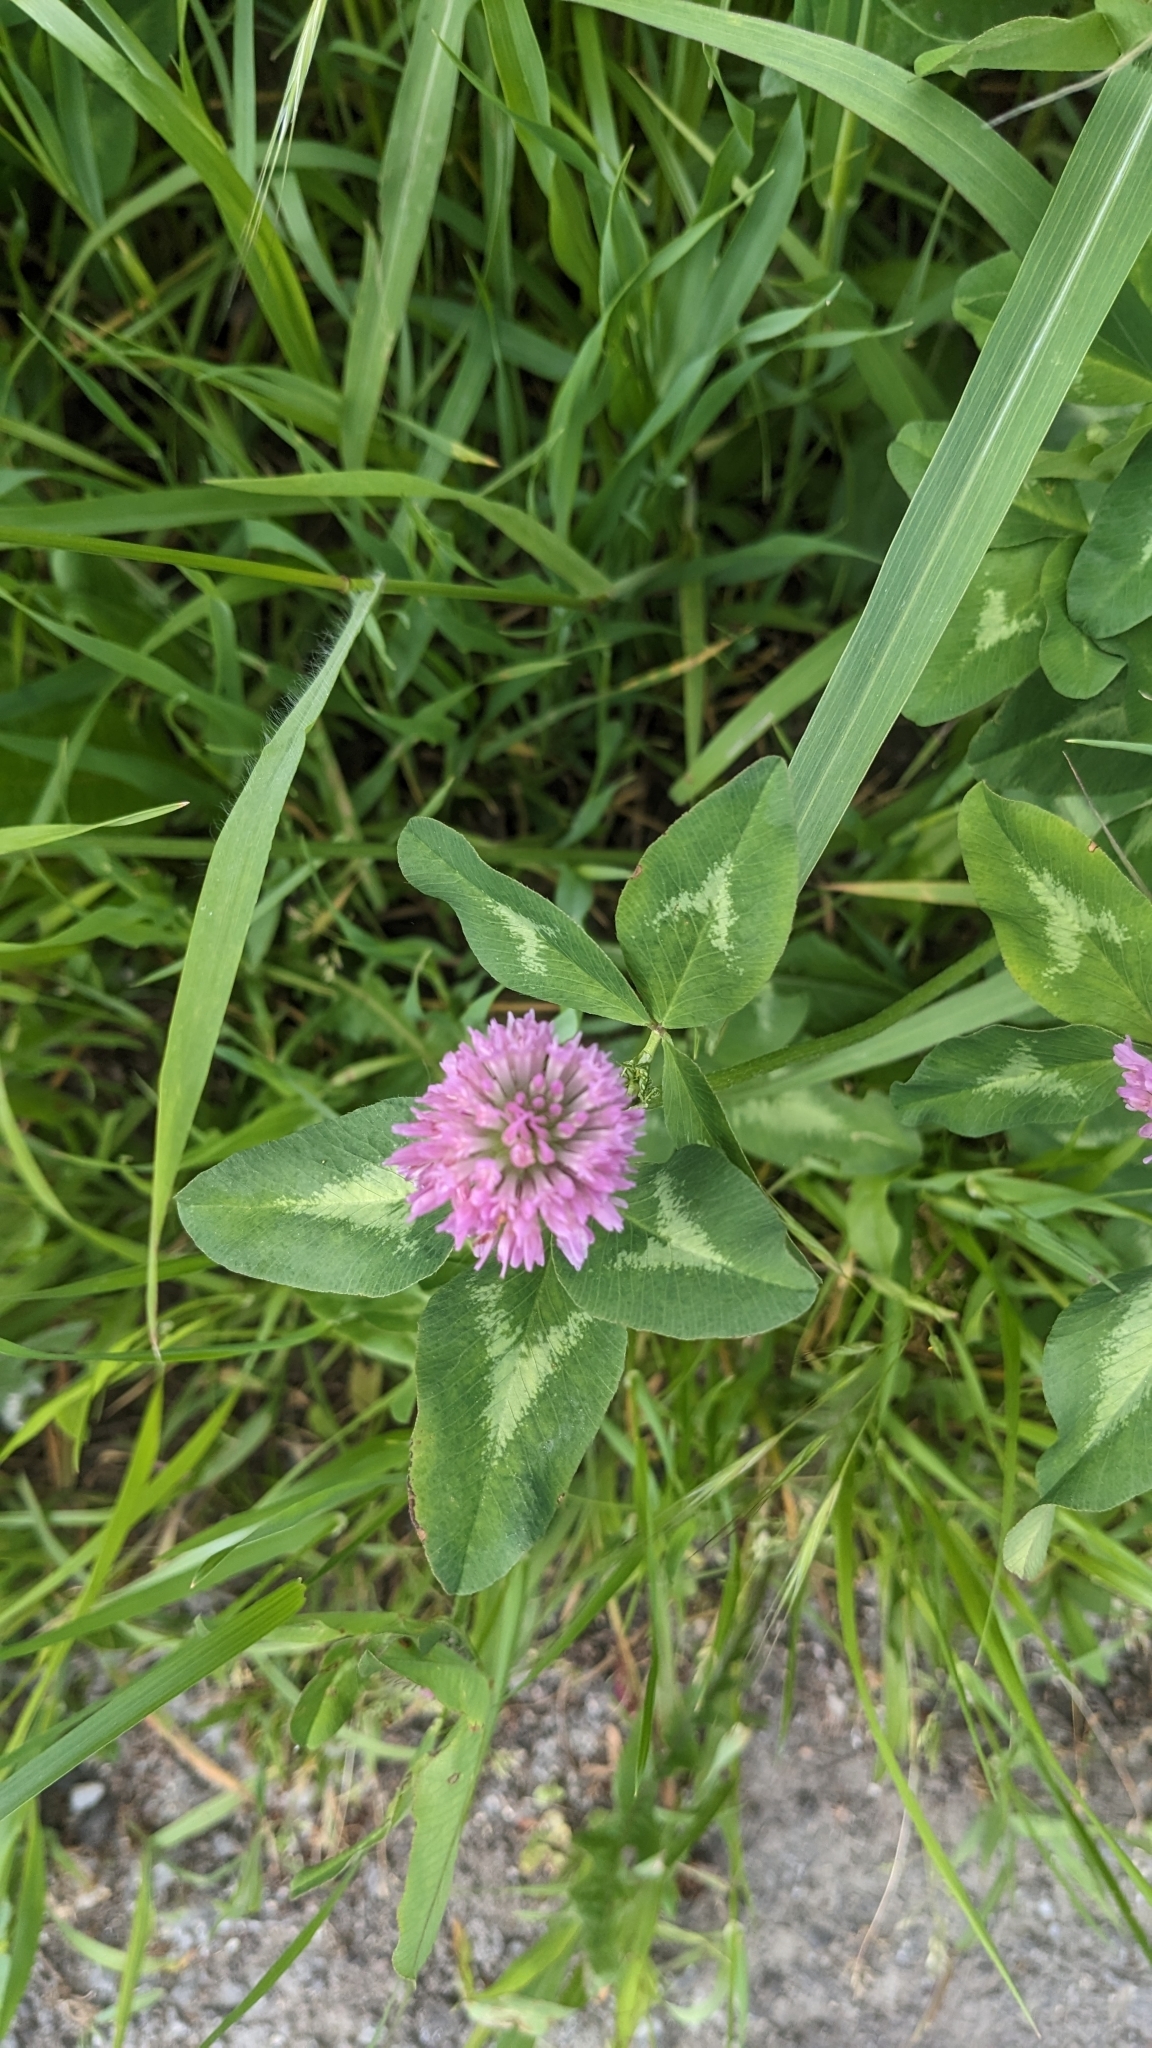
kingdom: Plantae
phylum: Tracheophyta
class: Magnoliopsida
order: Fabales
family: Fabaceae
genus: Trifolium
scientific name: Trifolium pratense
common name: Red clover
